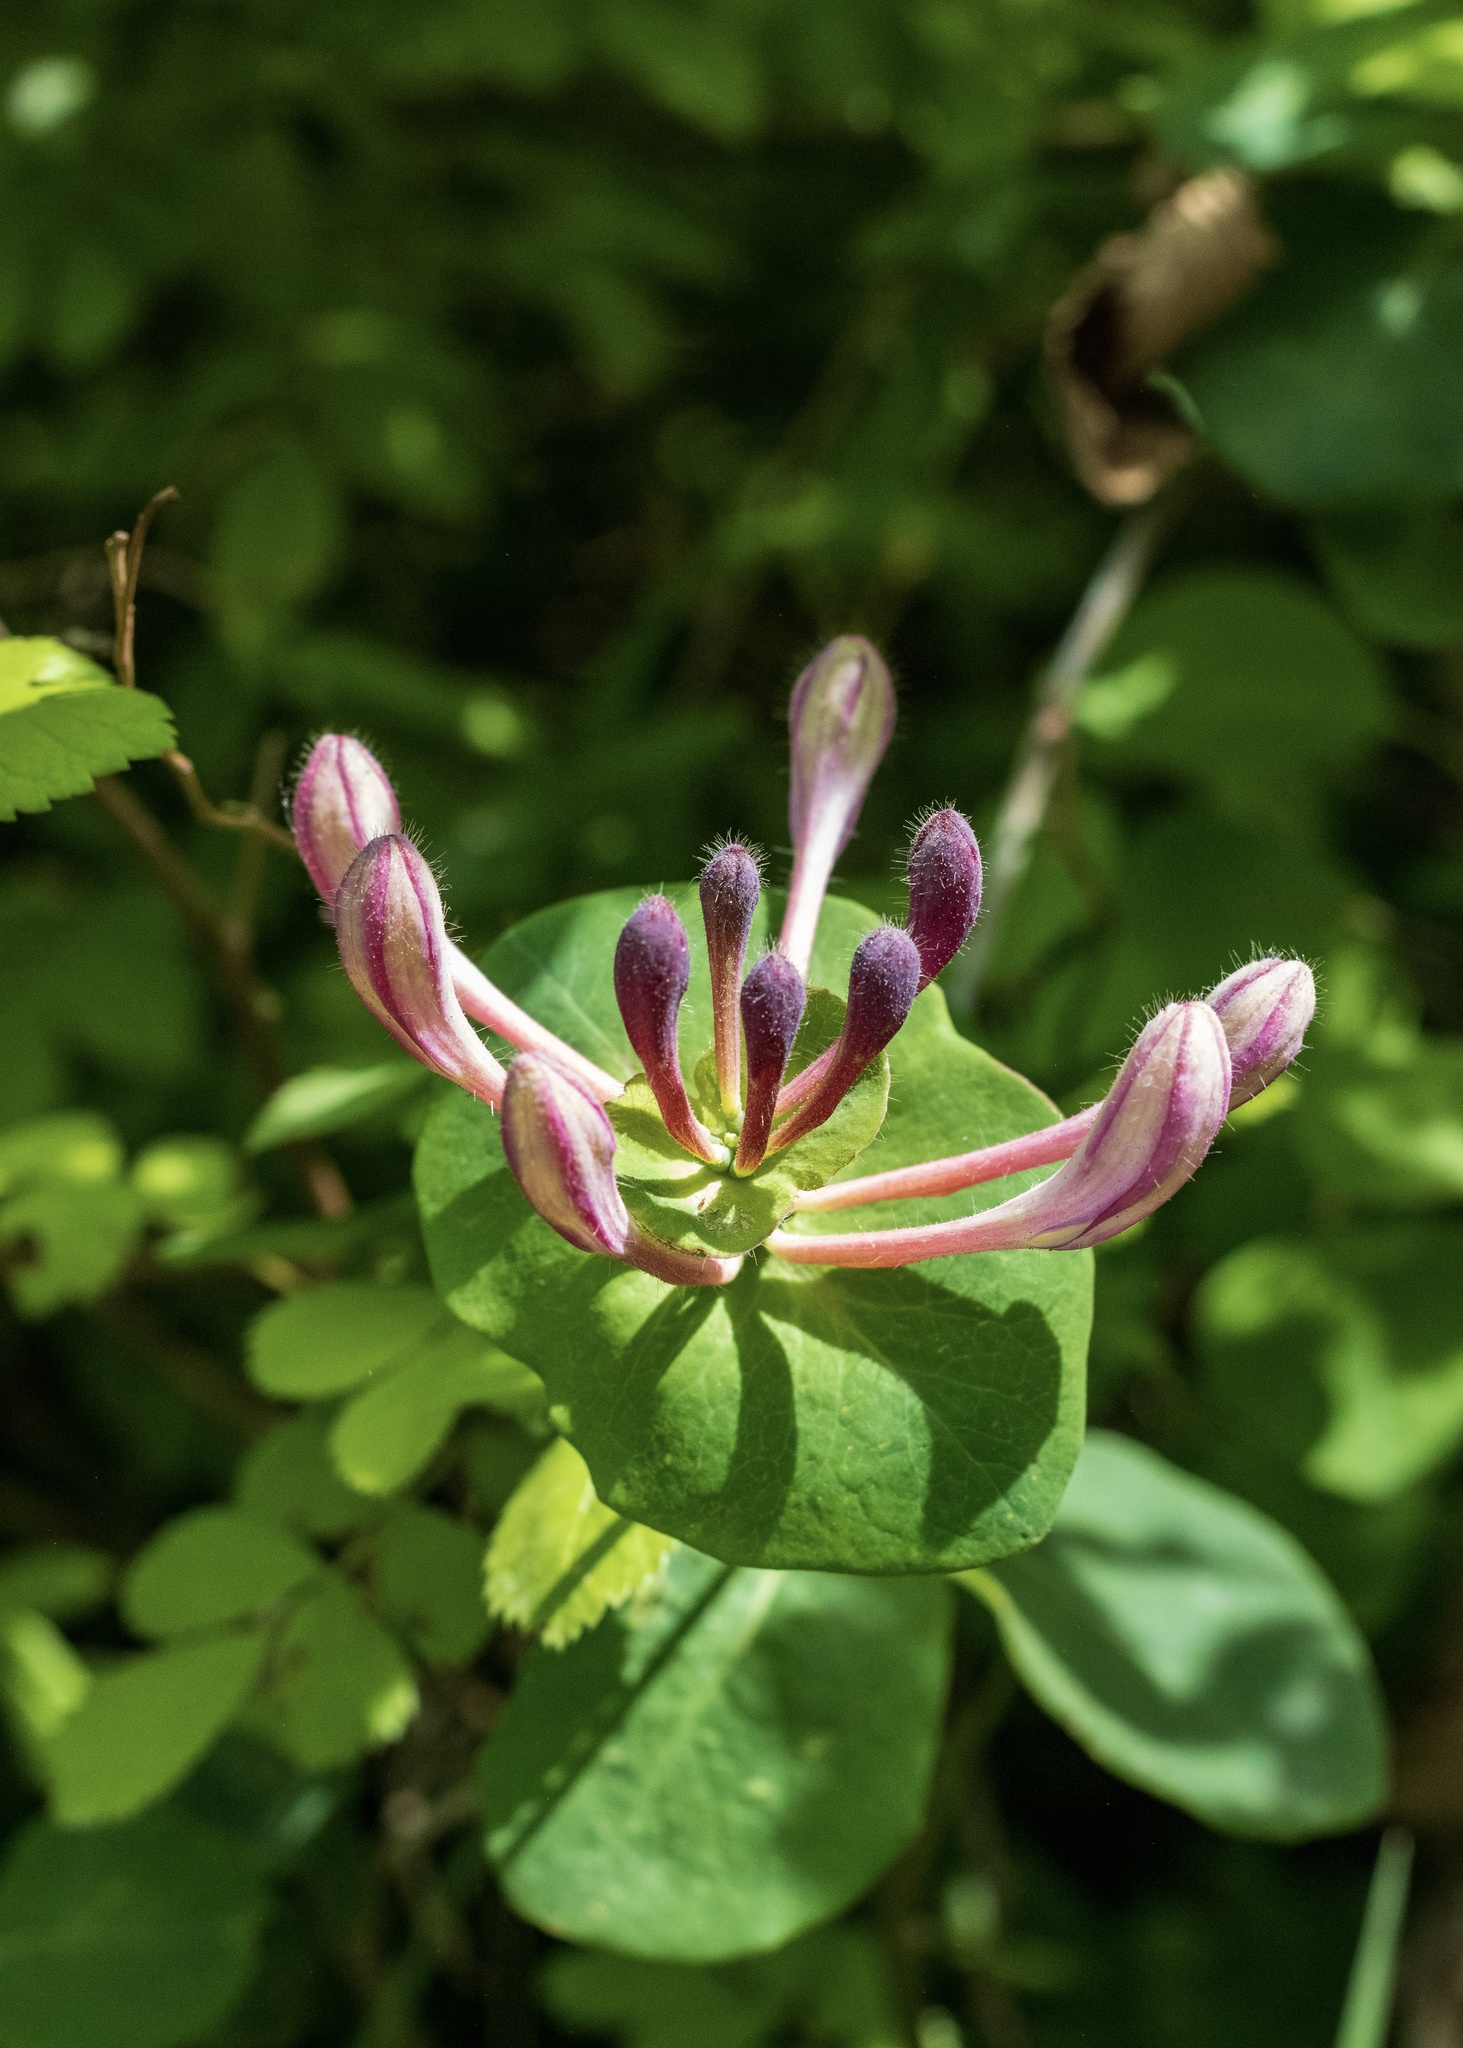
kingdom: Plantae
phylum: Tracheophyta
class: Magnoliopsida
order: Dipsacales
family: Caprifoliaceae
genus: Lonicera
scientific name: Lonicera caprifolium
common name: Perfoliate honeysuckle
